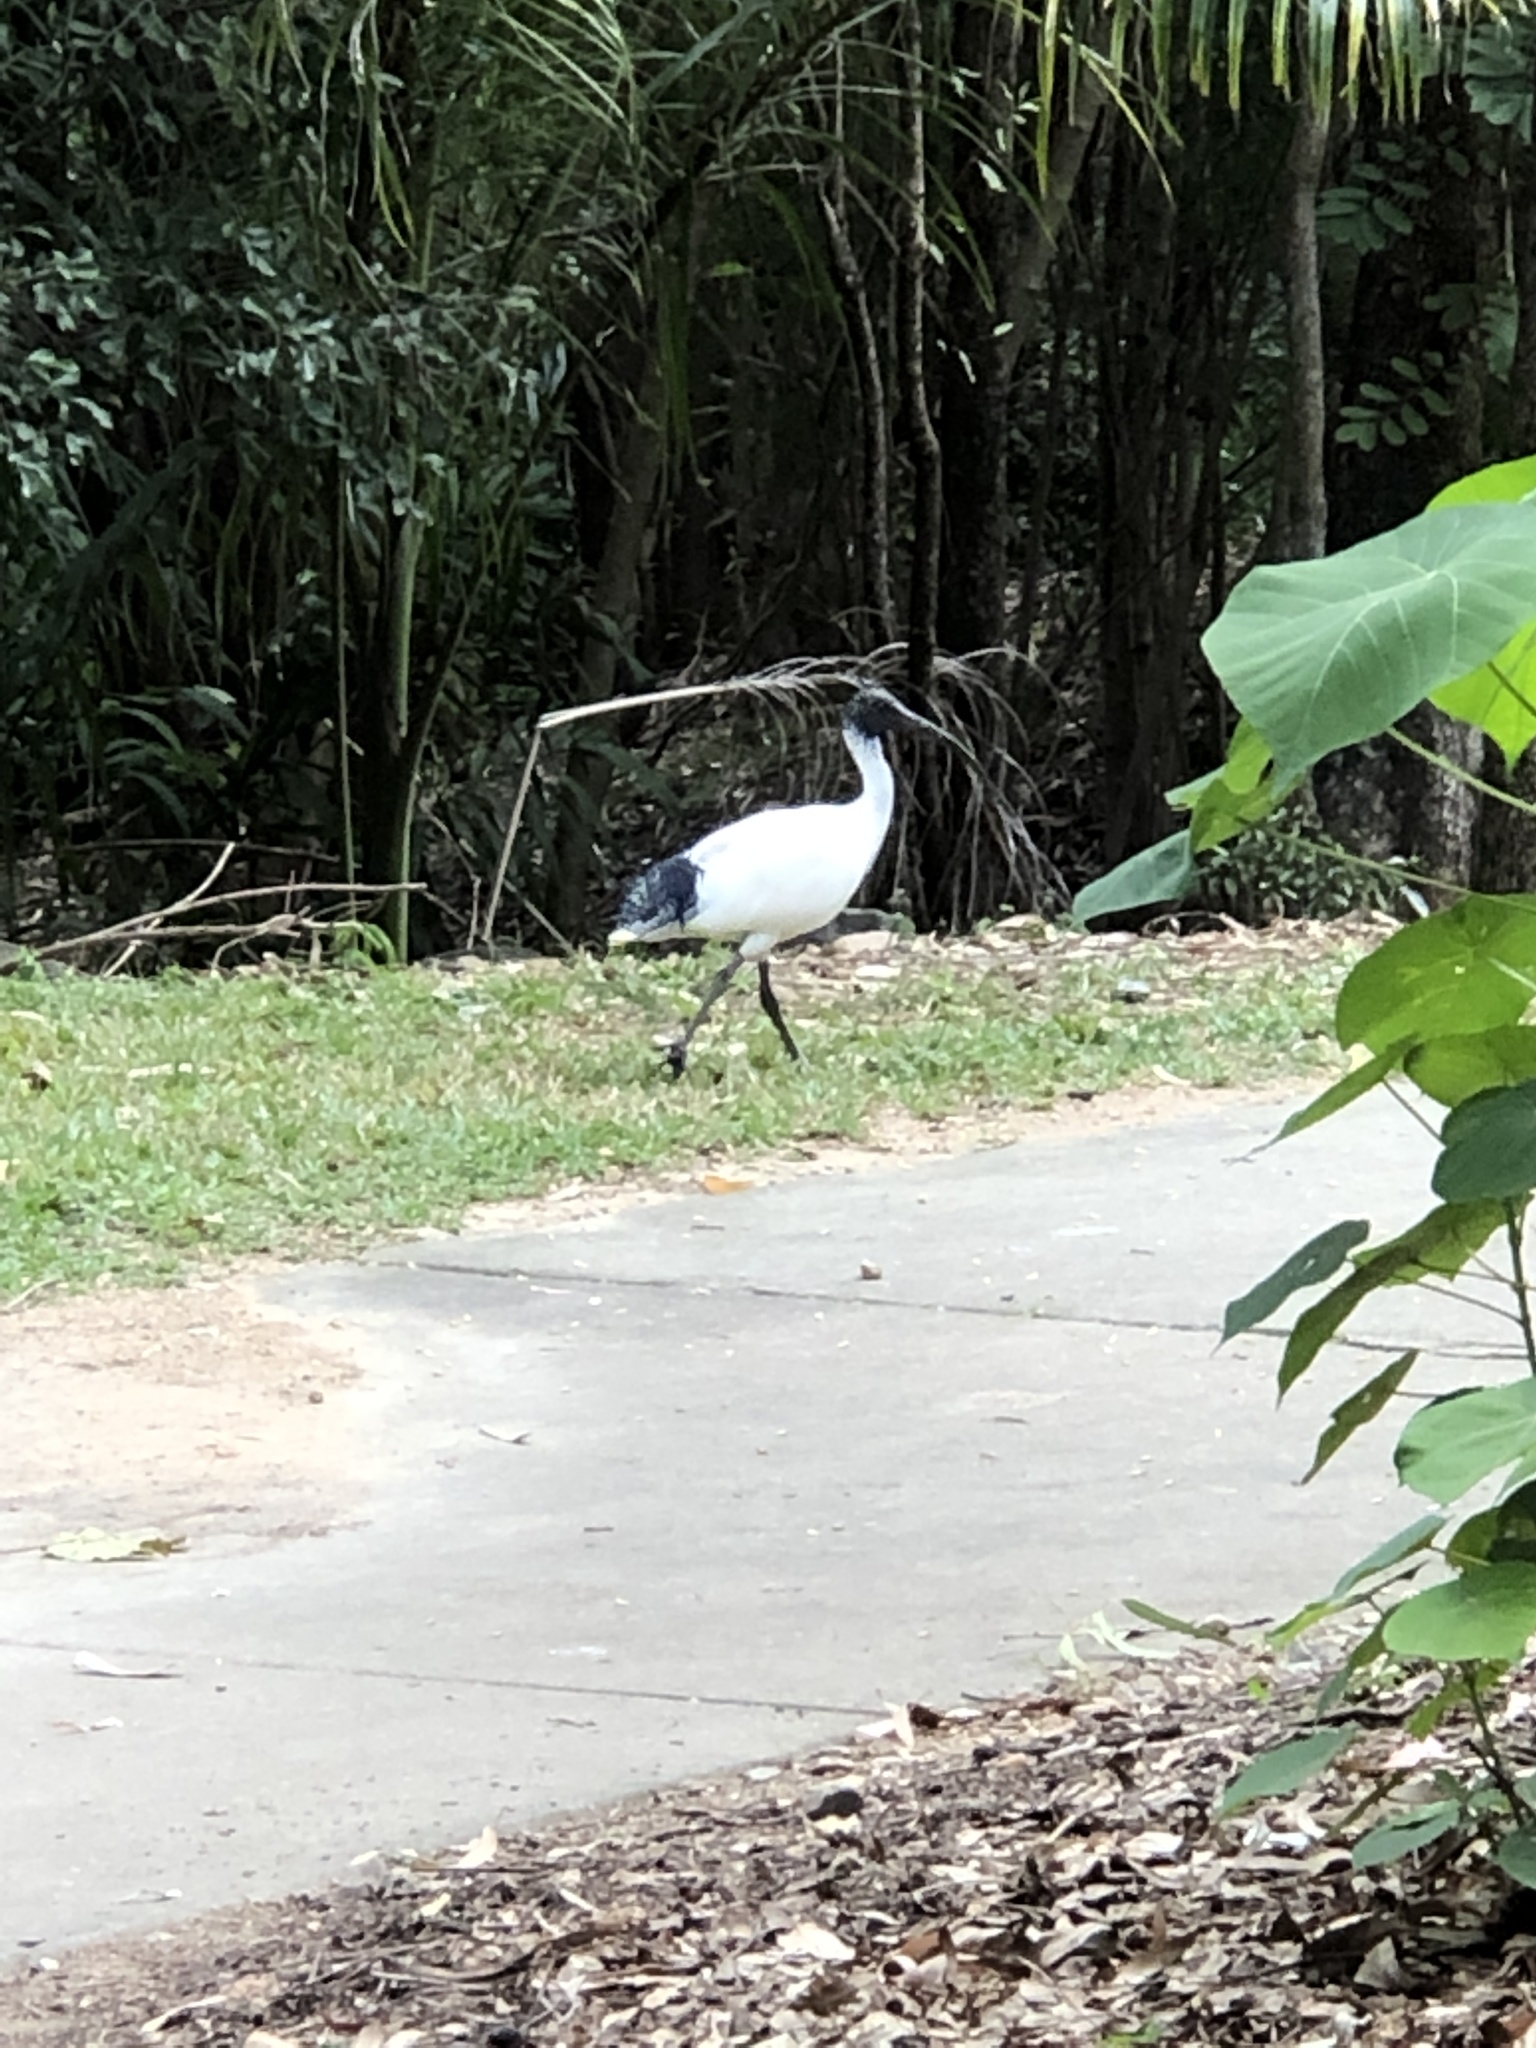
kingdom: Animalia
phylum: Chordata
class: Aves
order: Pelecaniformes
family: Threskiornithidae
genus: Threskiornis
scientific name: Threskiornis molucca
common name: Australian white ibis
